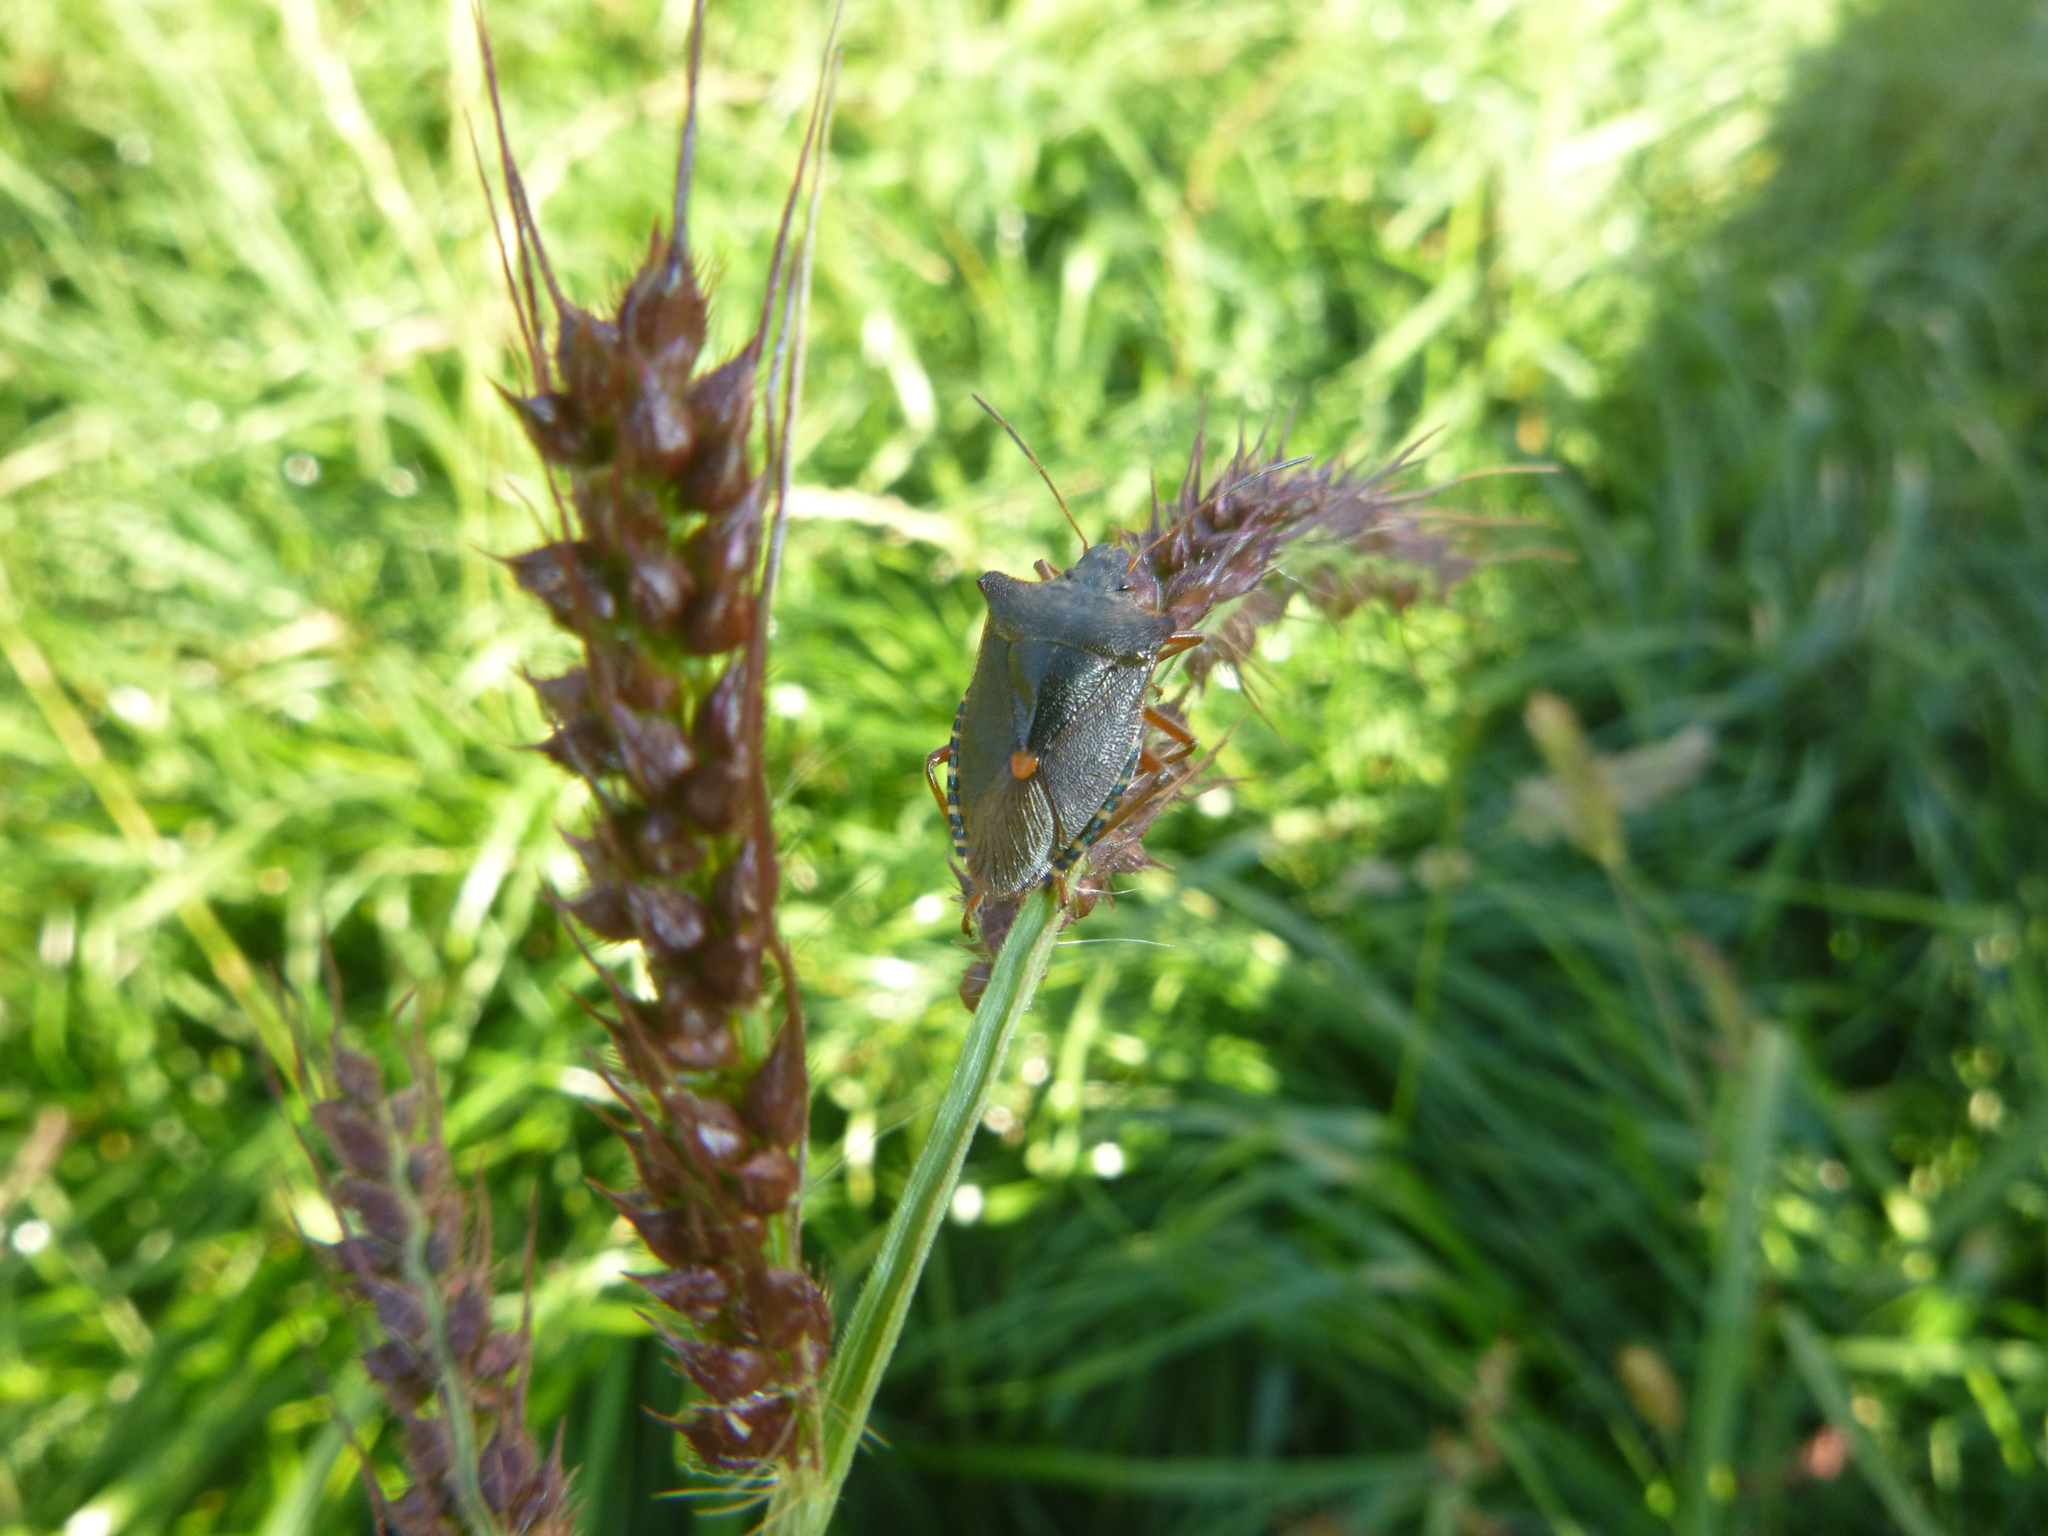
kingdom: Animalia
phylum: Arthropoda
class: Insecta
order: Hemiptera
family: Pentatomidae
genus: Pentatoma
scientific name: Pentatoma rufipes
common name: Forest bug
